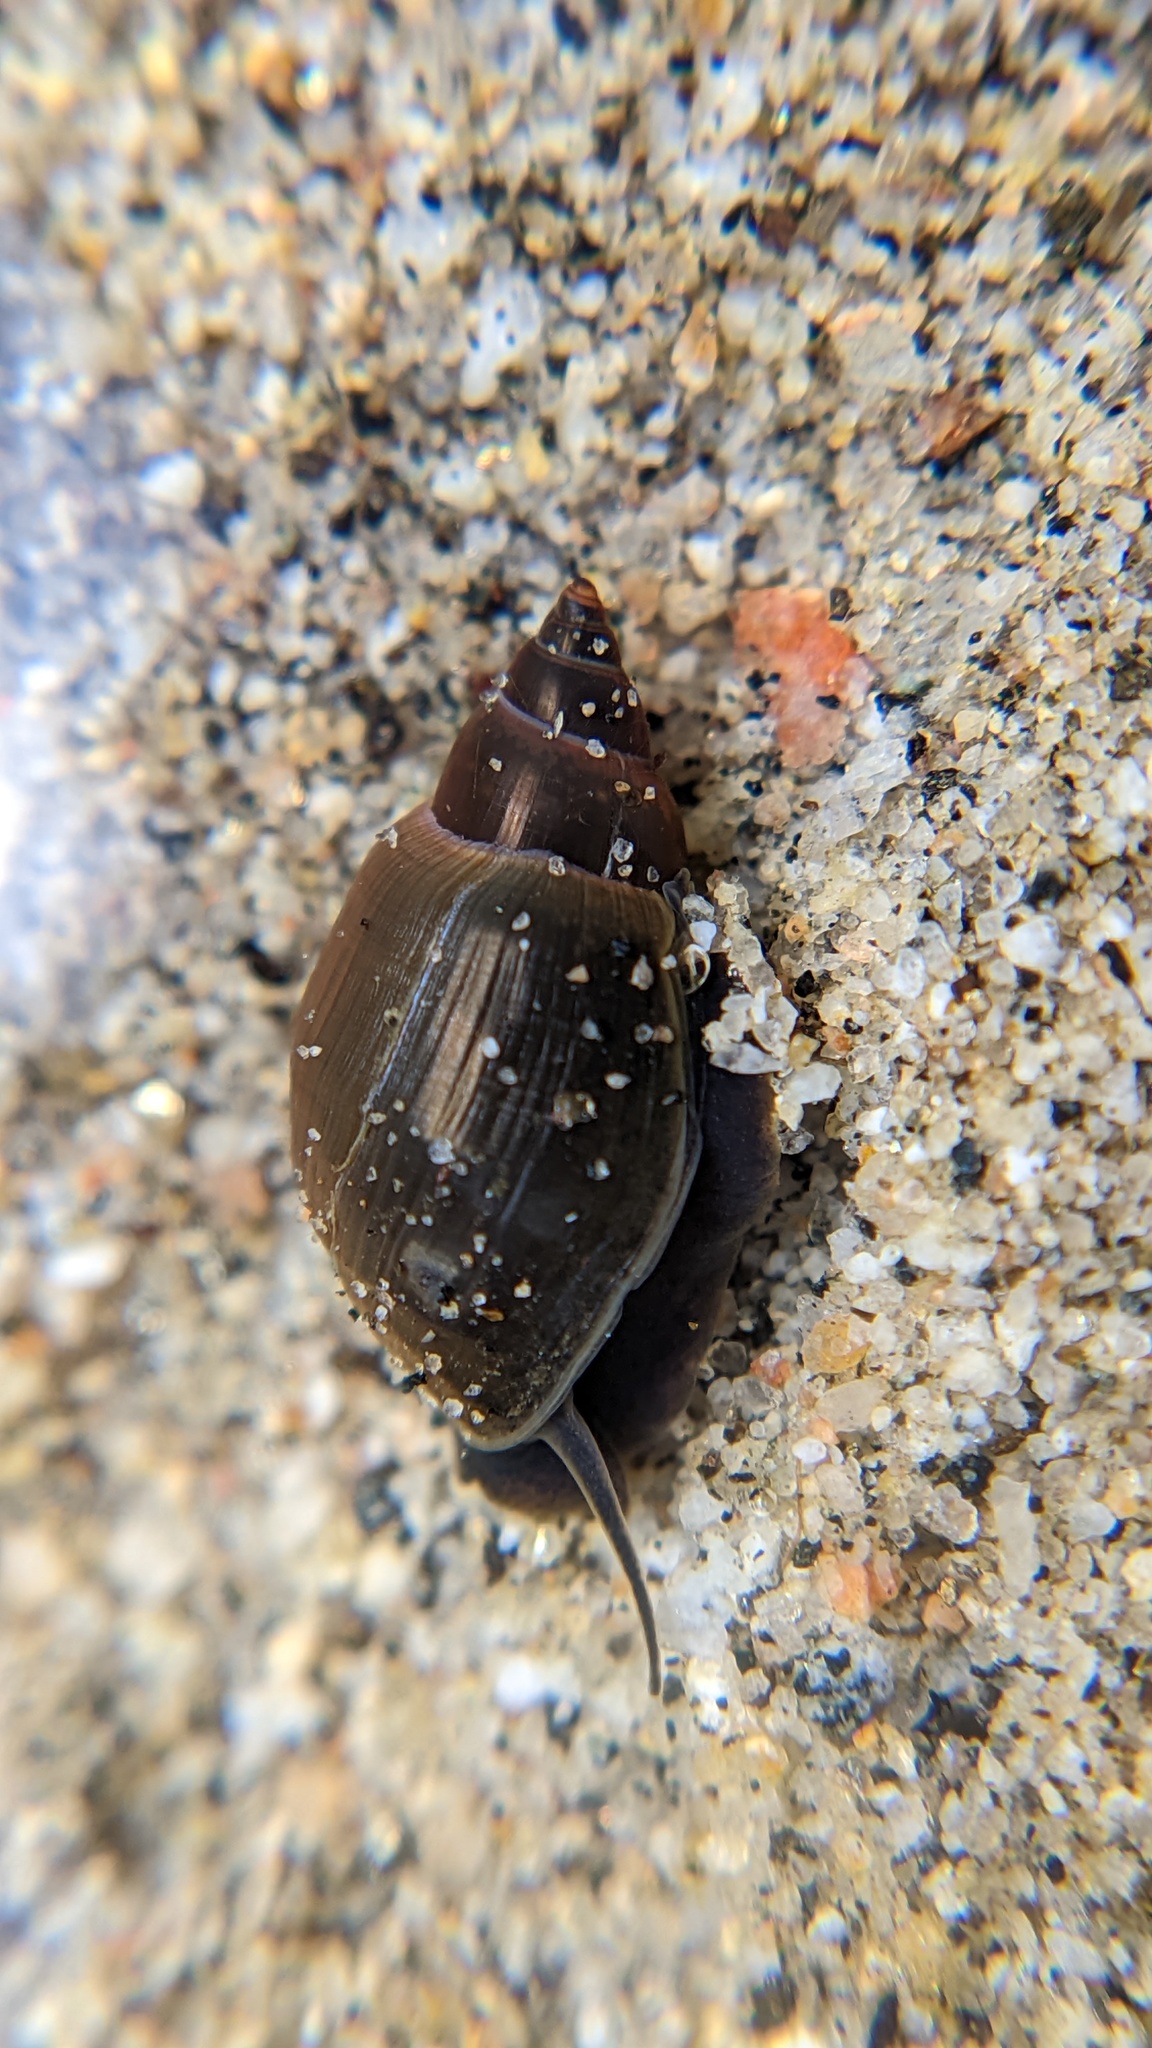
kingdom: Animalia
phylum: Mollusca
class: Gastropoda
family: Physidae
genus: Physella
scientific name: Physella acuta
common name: European physa
